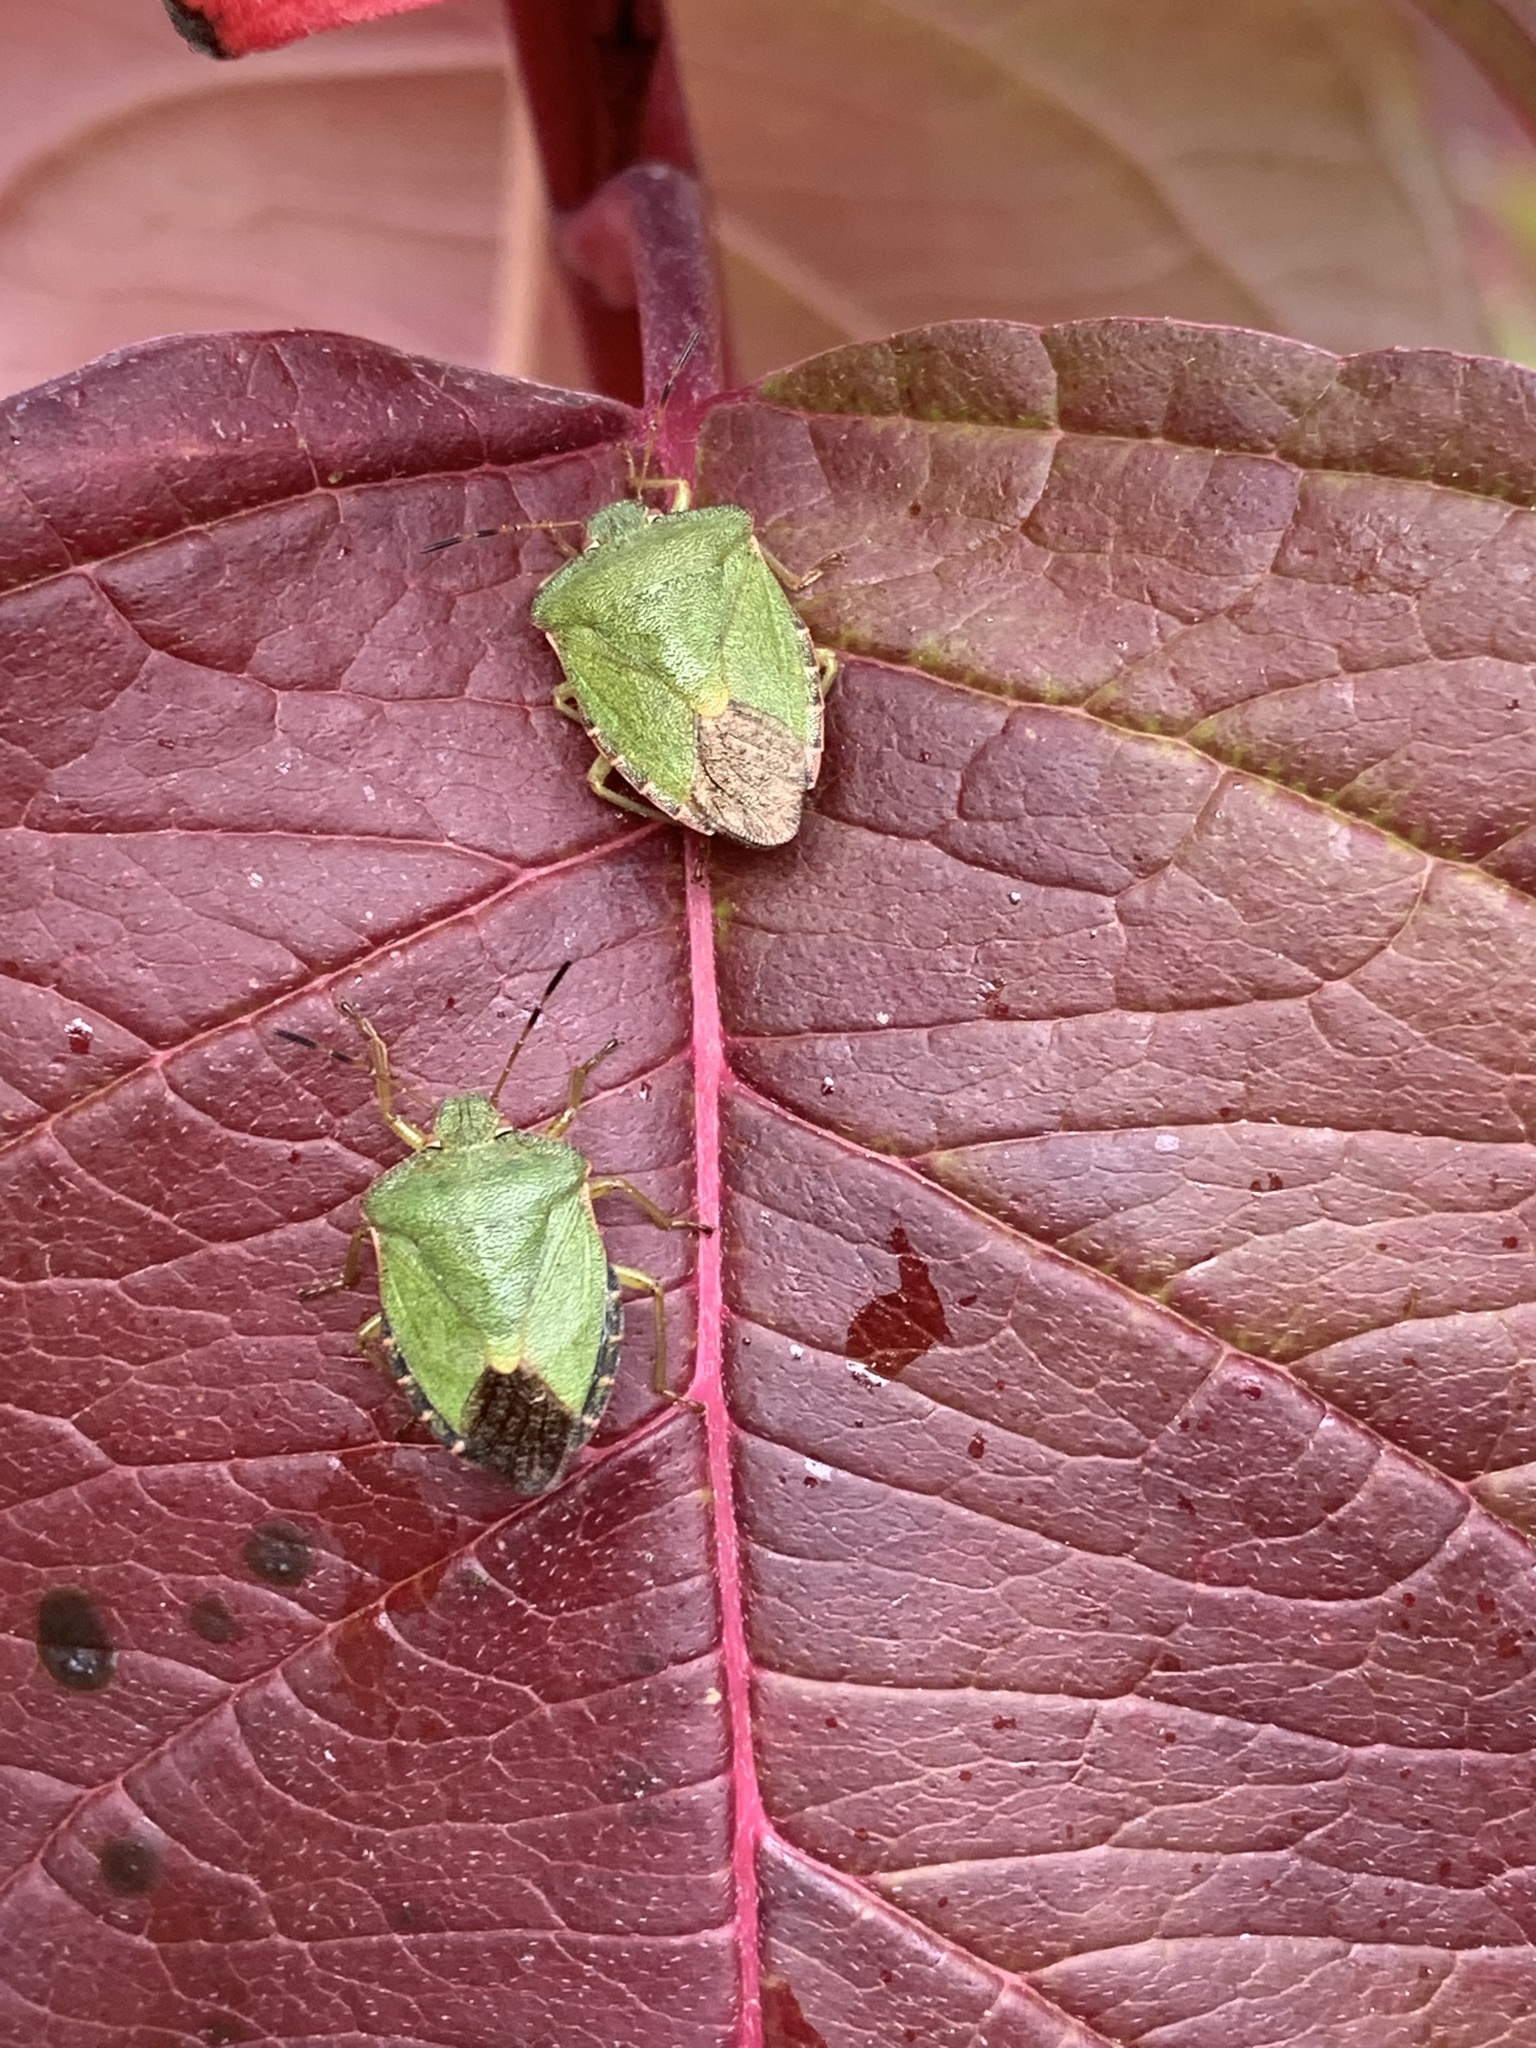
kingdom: Animalia
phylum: Arthropoda
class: Insecta
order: Hemiptera
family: Pentatomidae
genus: Palomena
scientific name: Palomena prasina
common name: Green shieldbug
